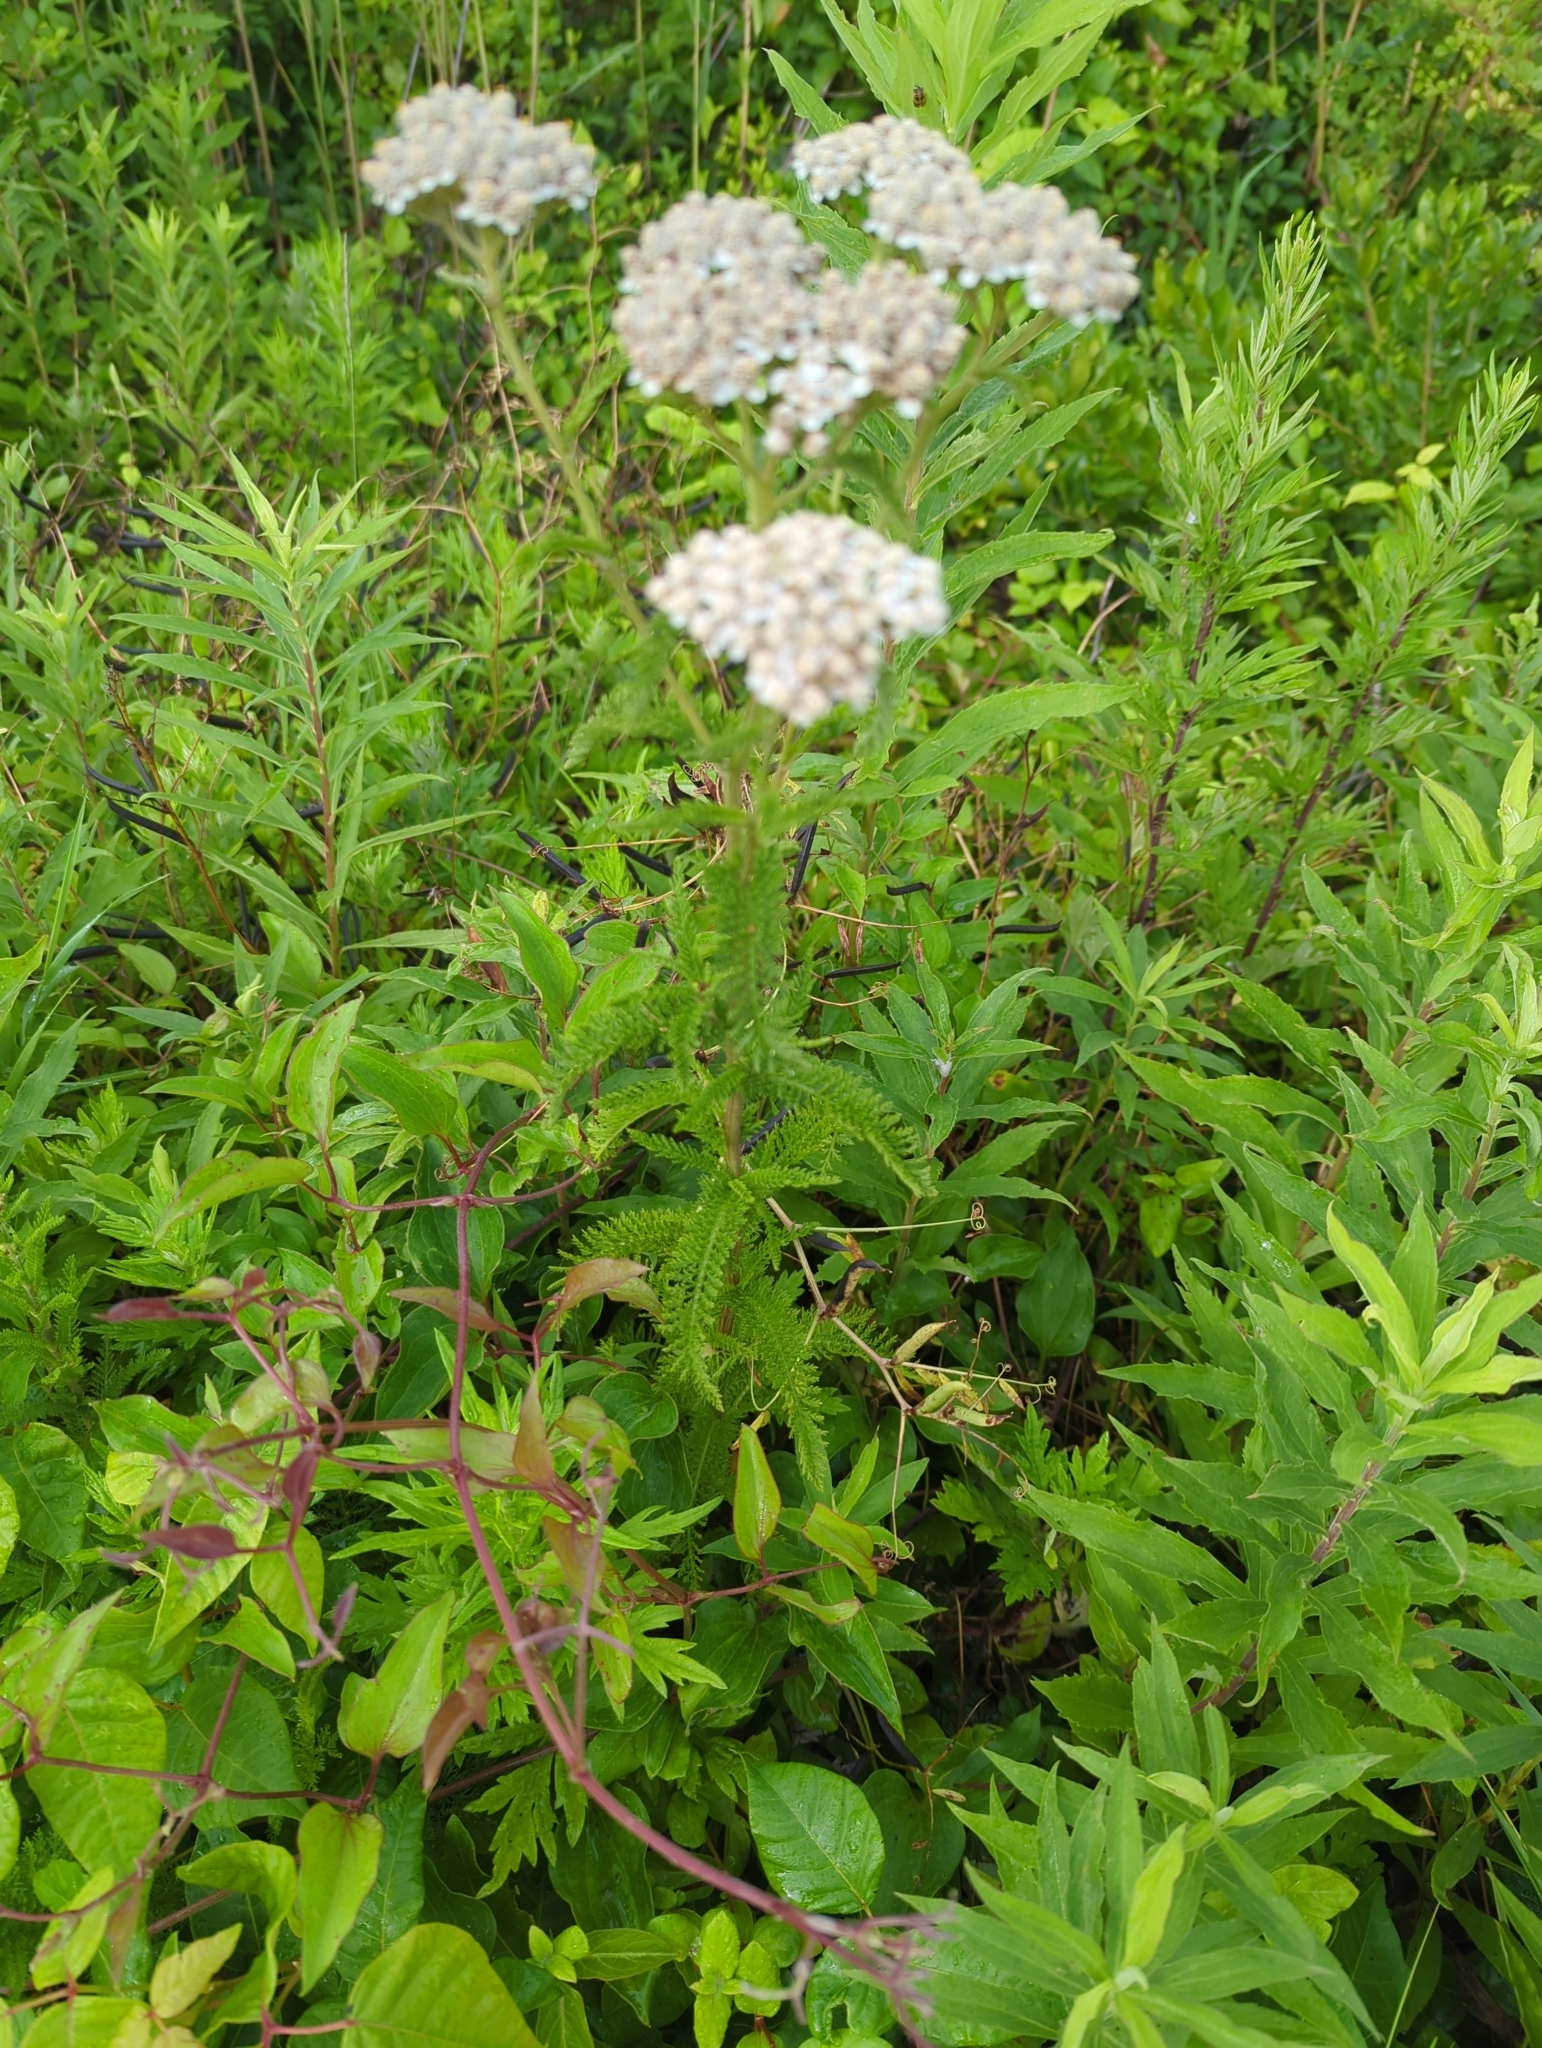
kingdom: Plantae
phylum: Tracheophyta
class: Magnoliopsida
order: Asterales
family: Asteraceae
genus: Achillea
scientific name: Achillea millefolium
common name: Yarrow
